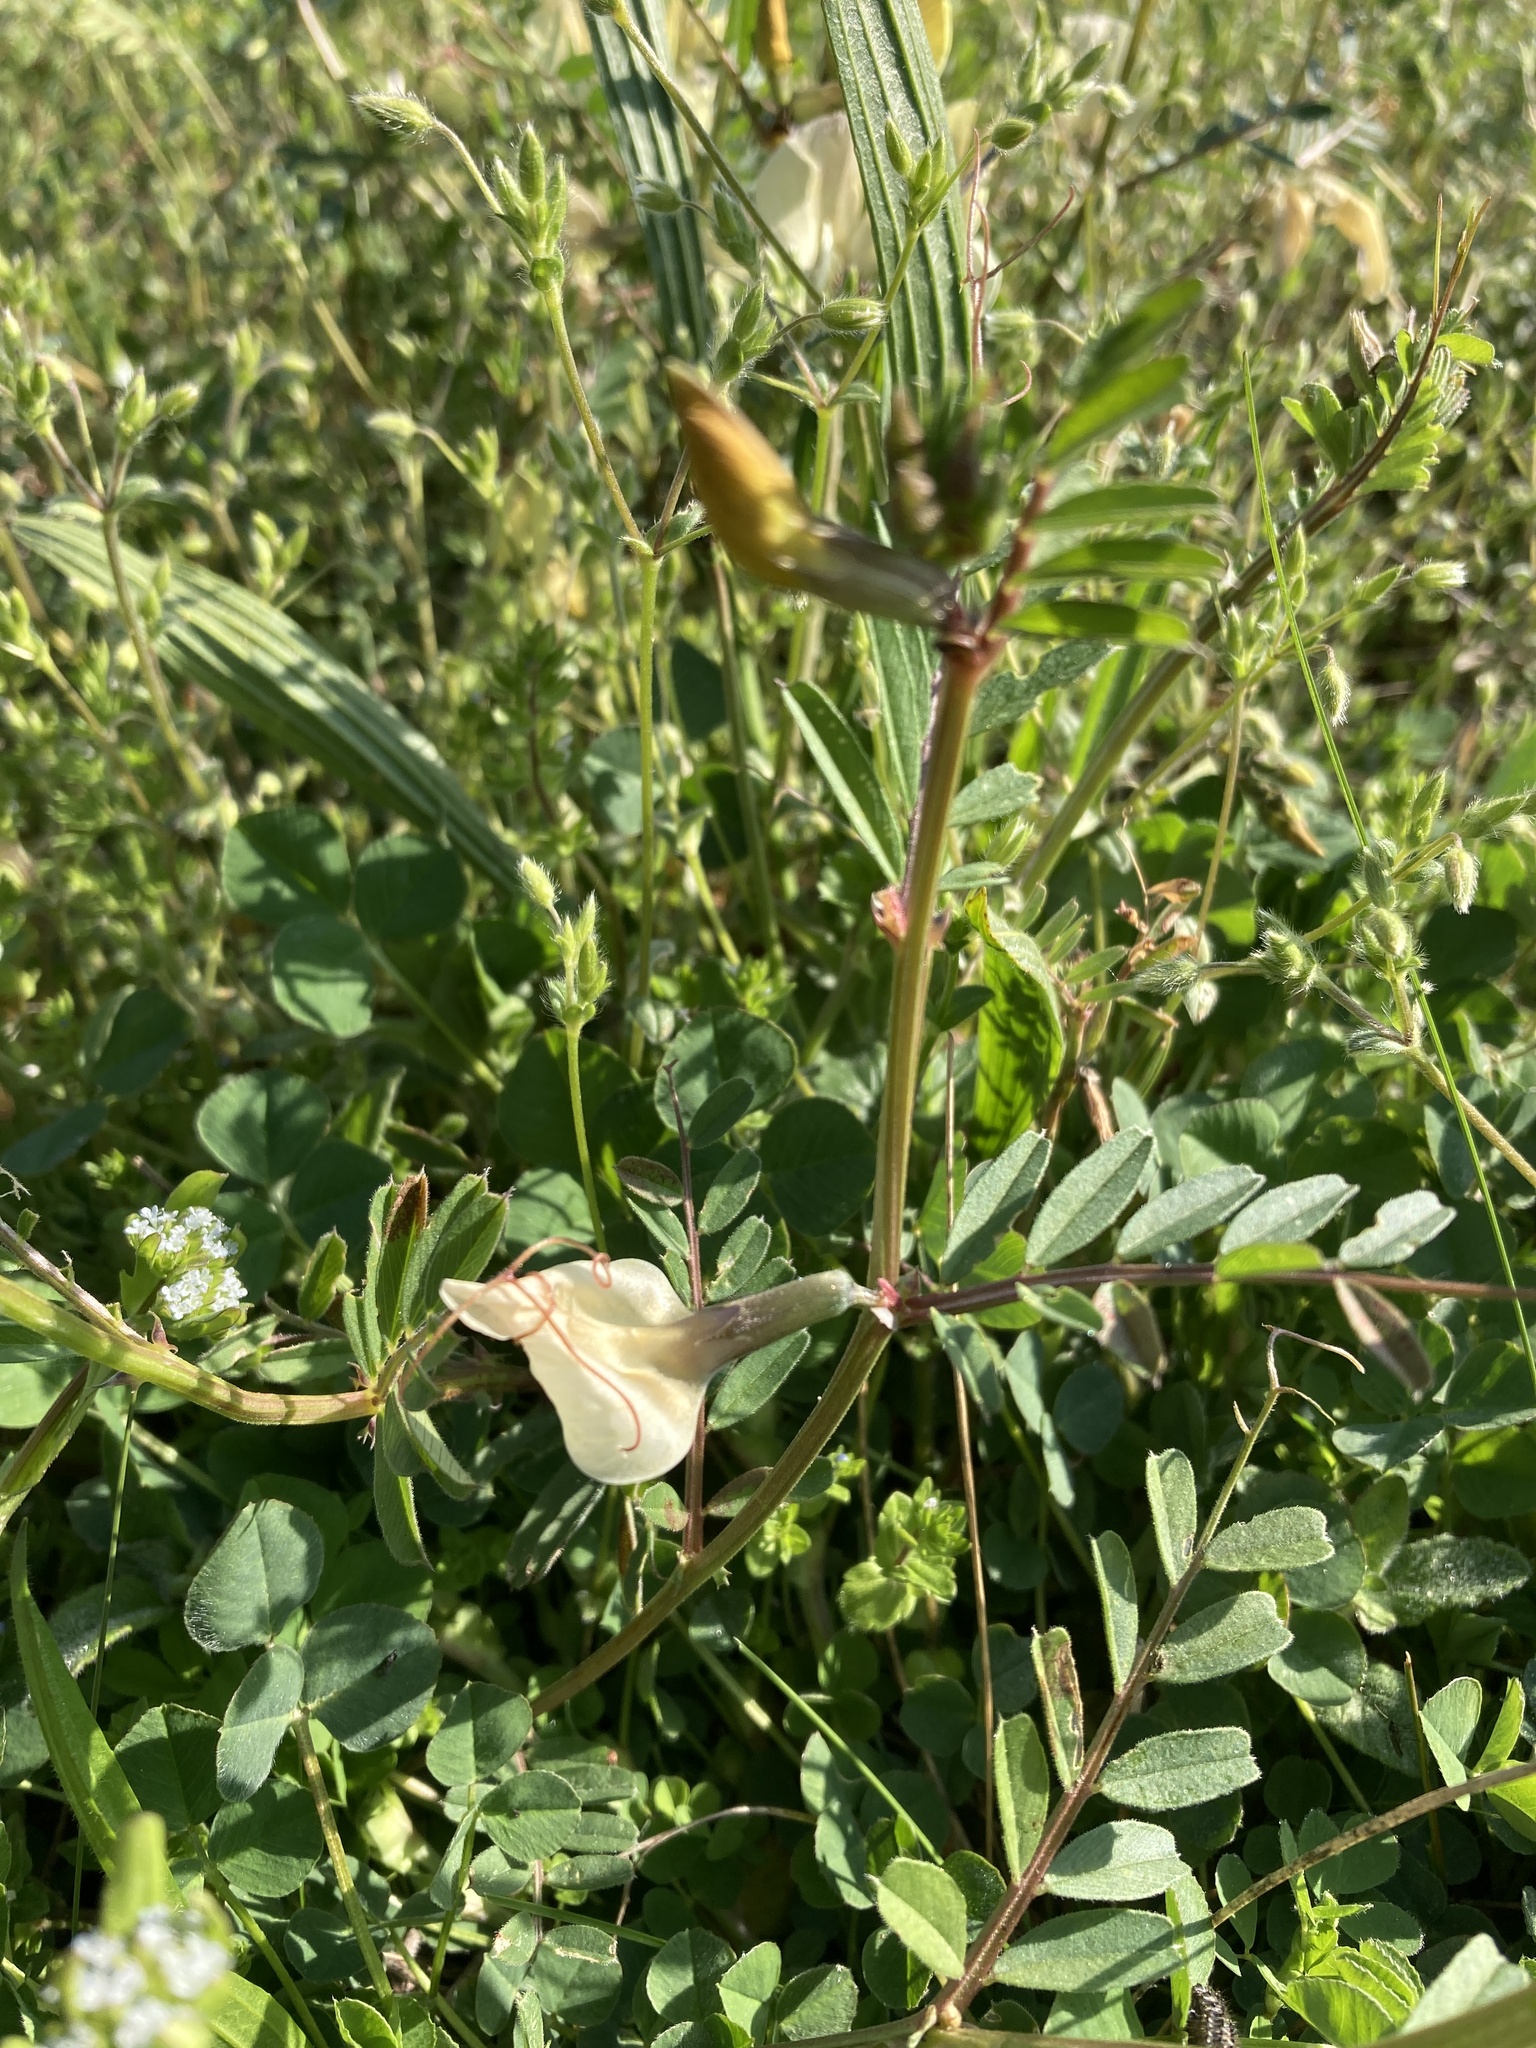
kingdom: Plantae
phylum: Tracheophyta
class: Magnoliopsida
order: Fabales
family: Fabaceae
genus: Vicia
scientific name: Vicia grandiflora
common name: Large yellow vetch
